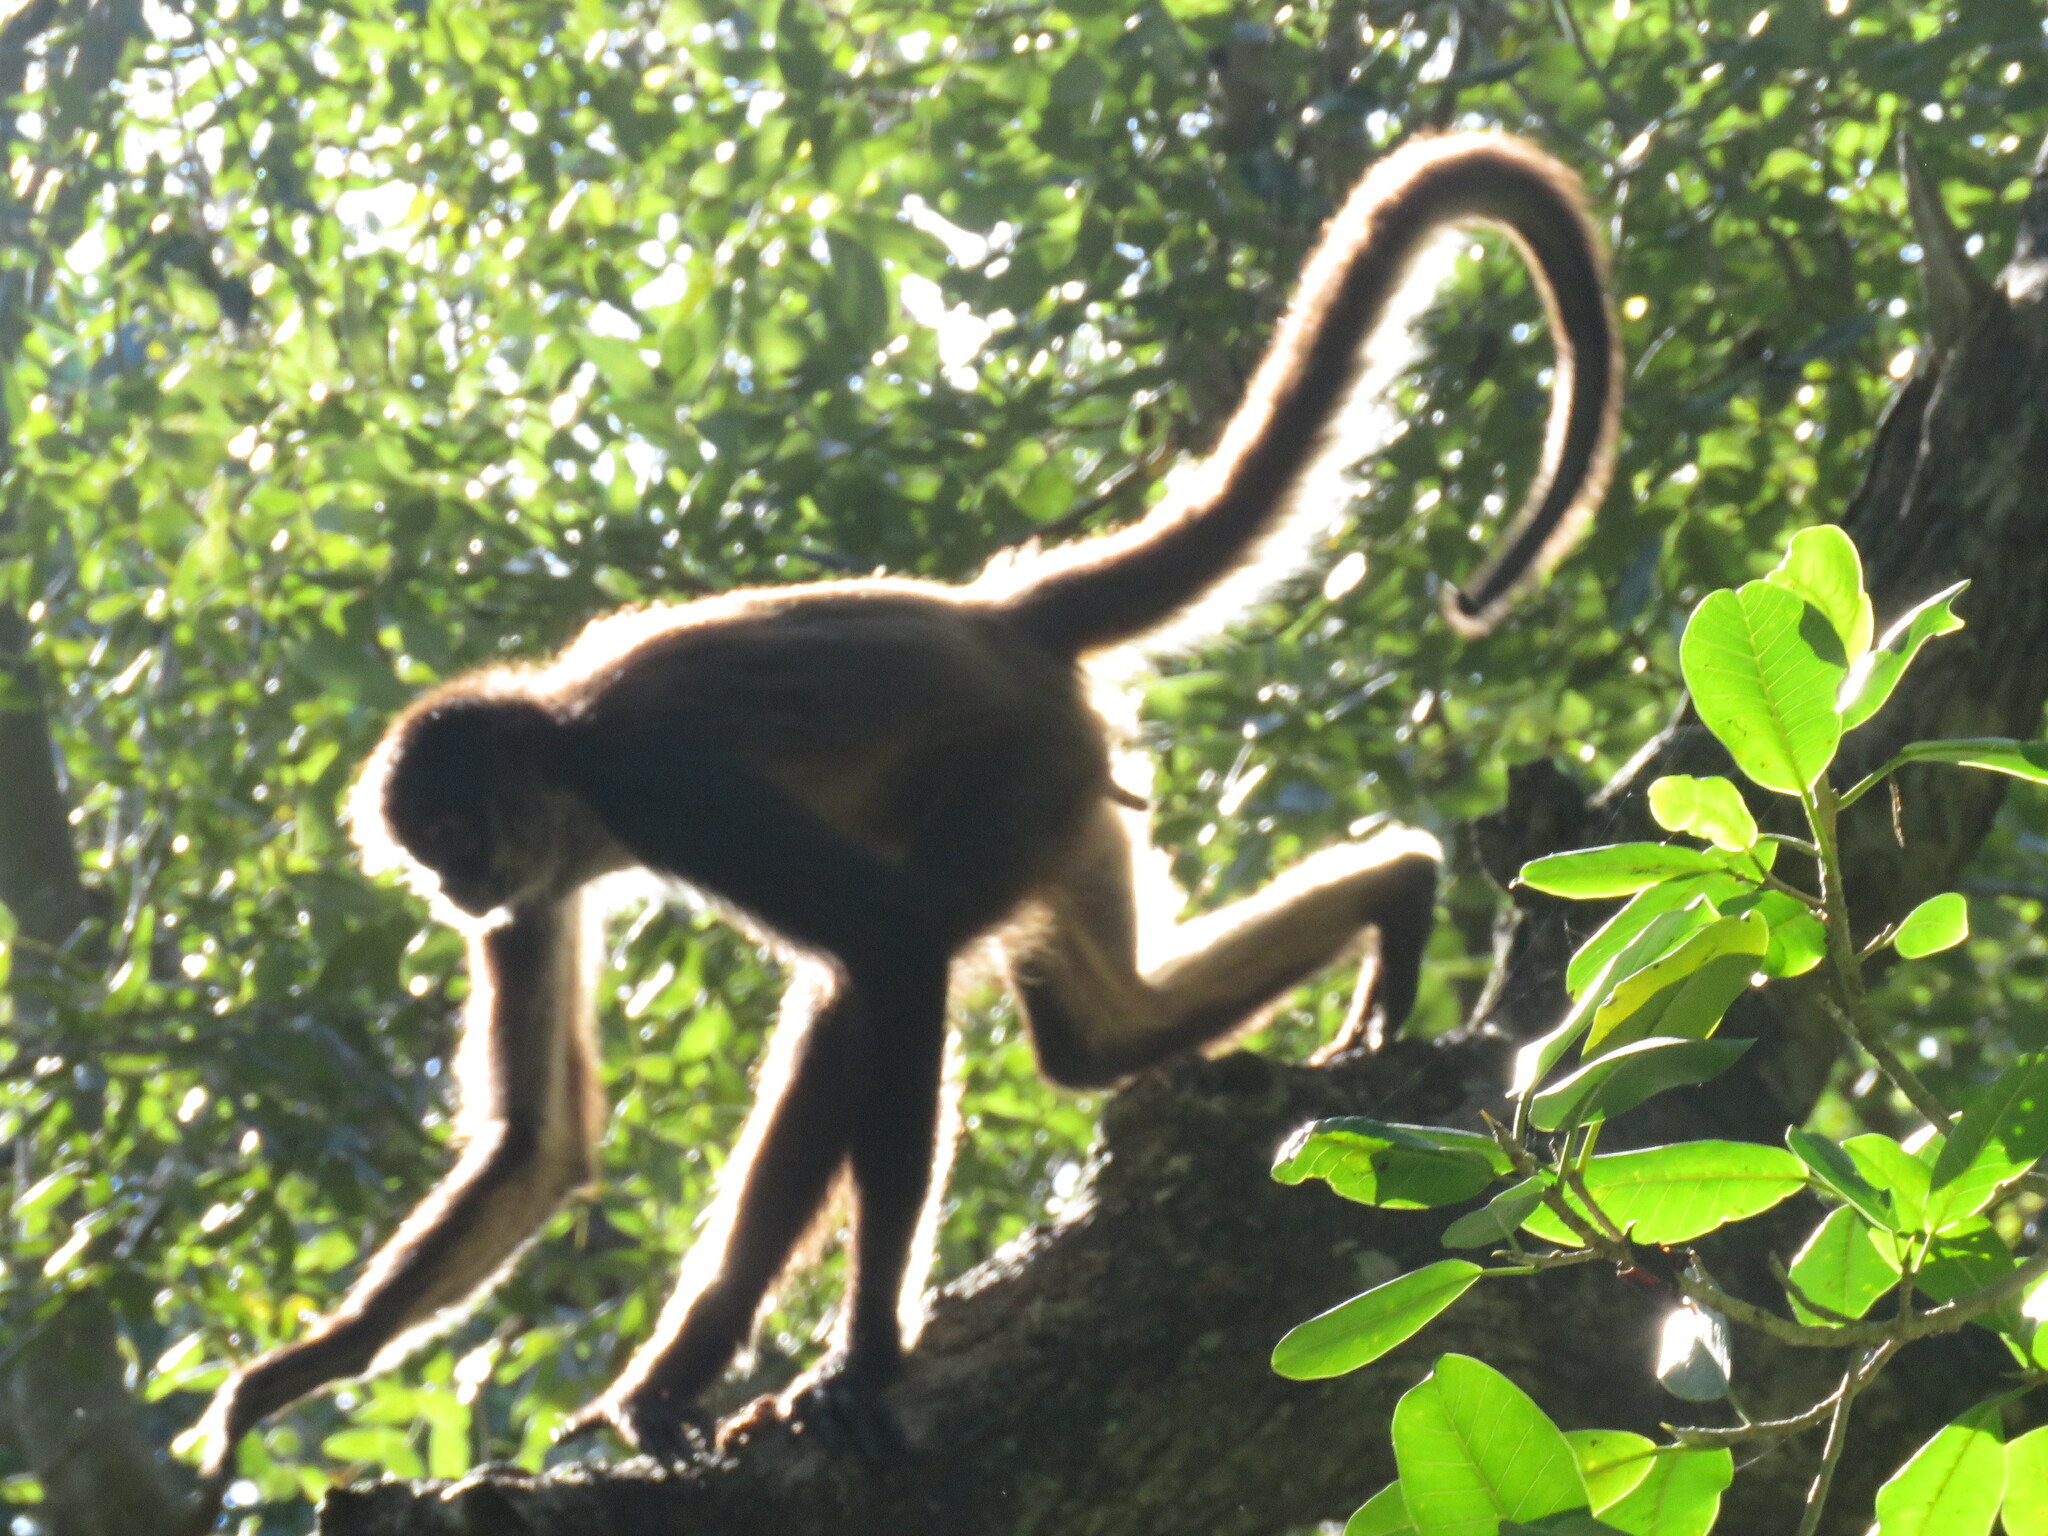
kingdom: Animalia
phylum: Chordata
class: Mammalia
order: Primates
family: Atelidae
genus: Ateles
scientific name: Ateles geoffroyi
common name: Black-handed spider monkey
